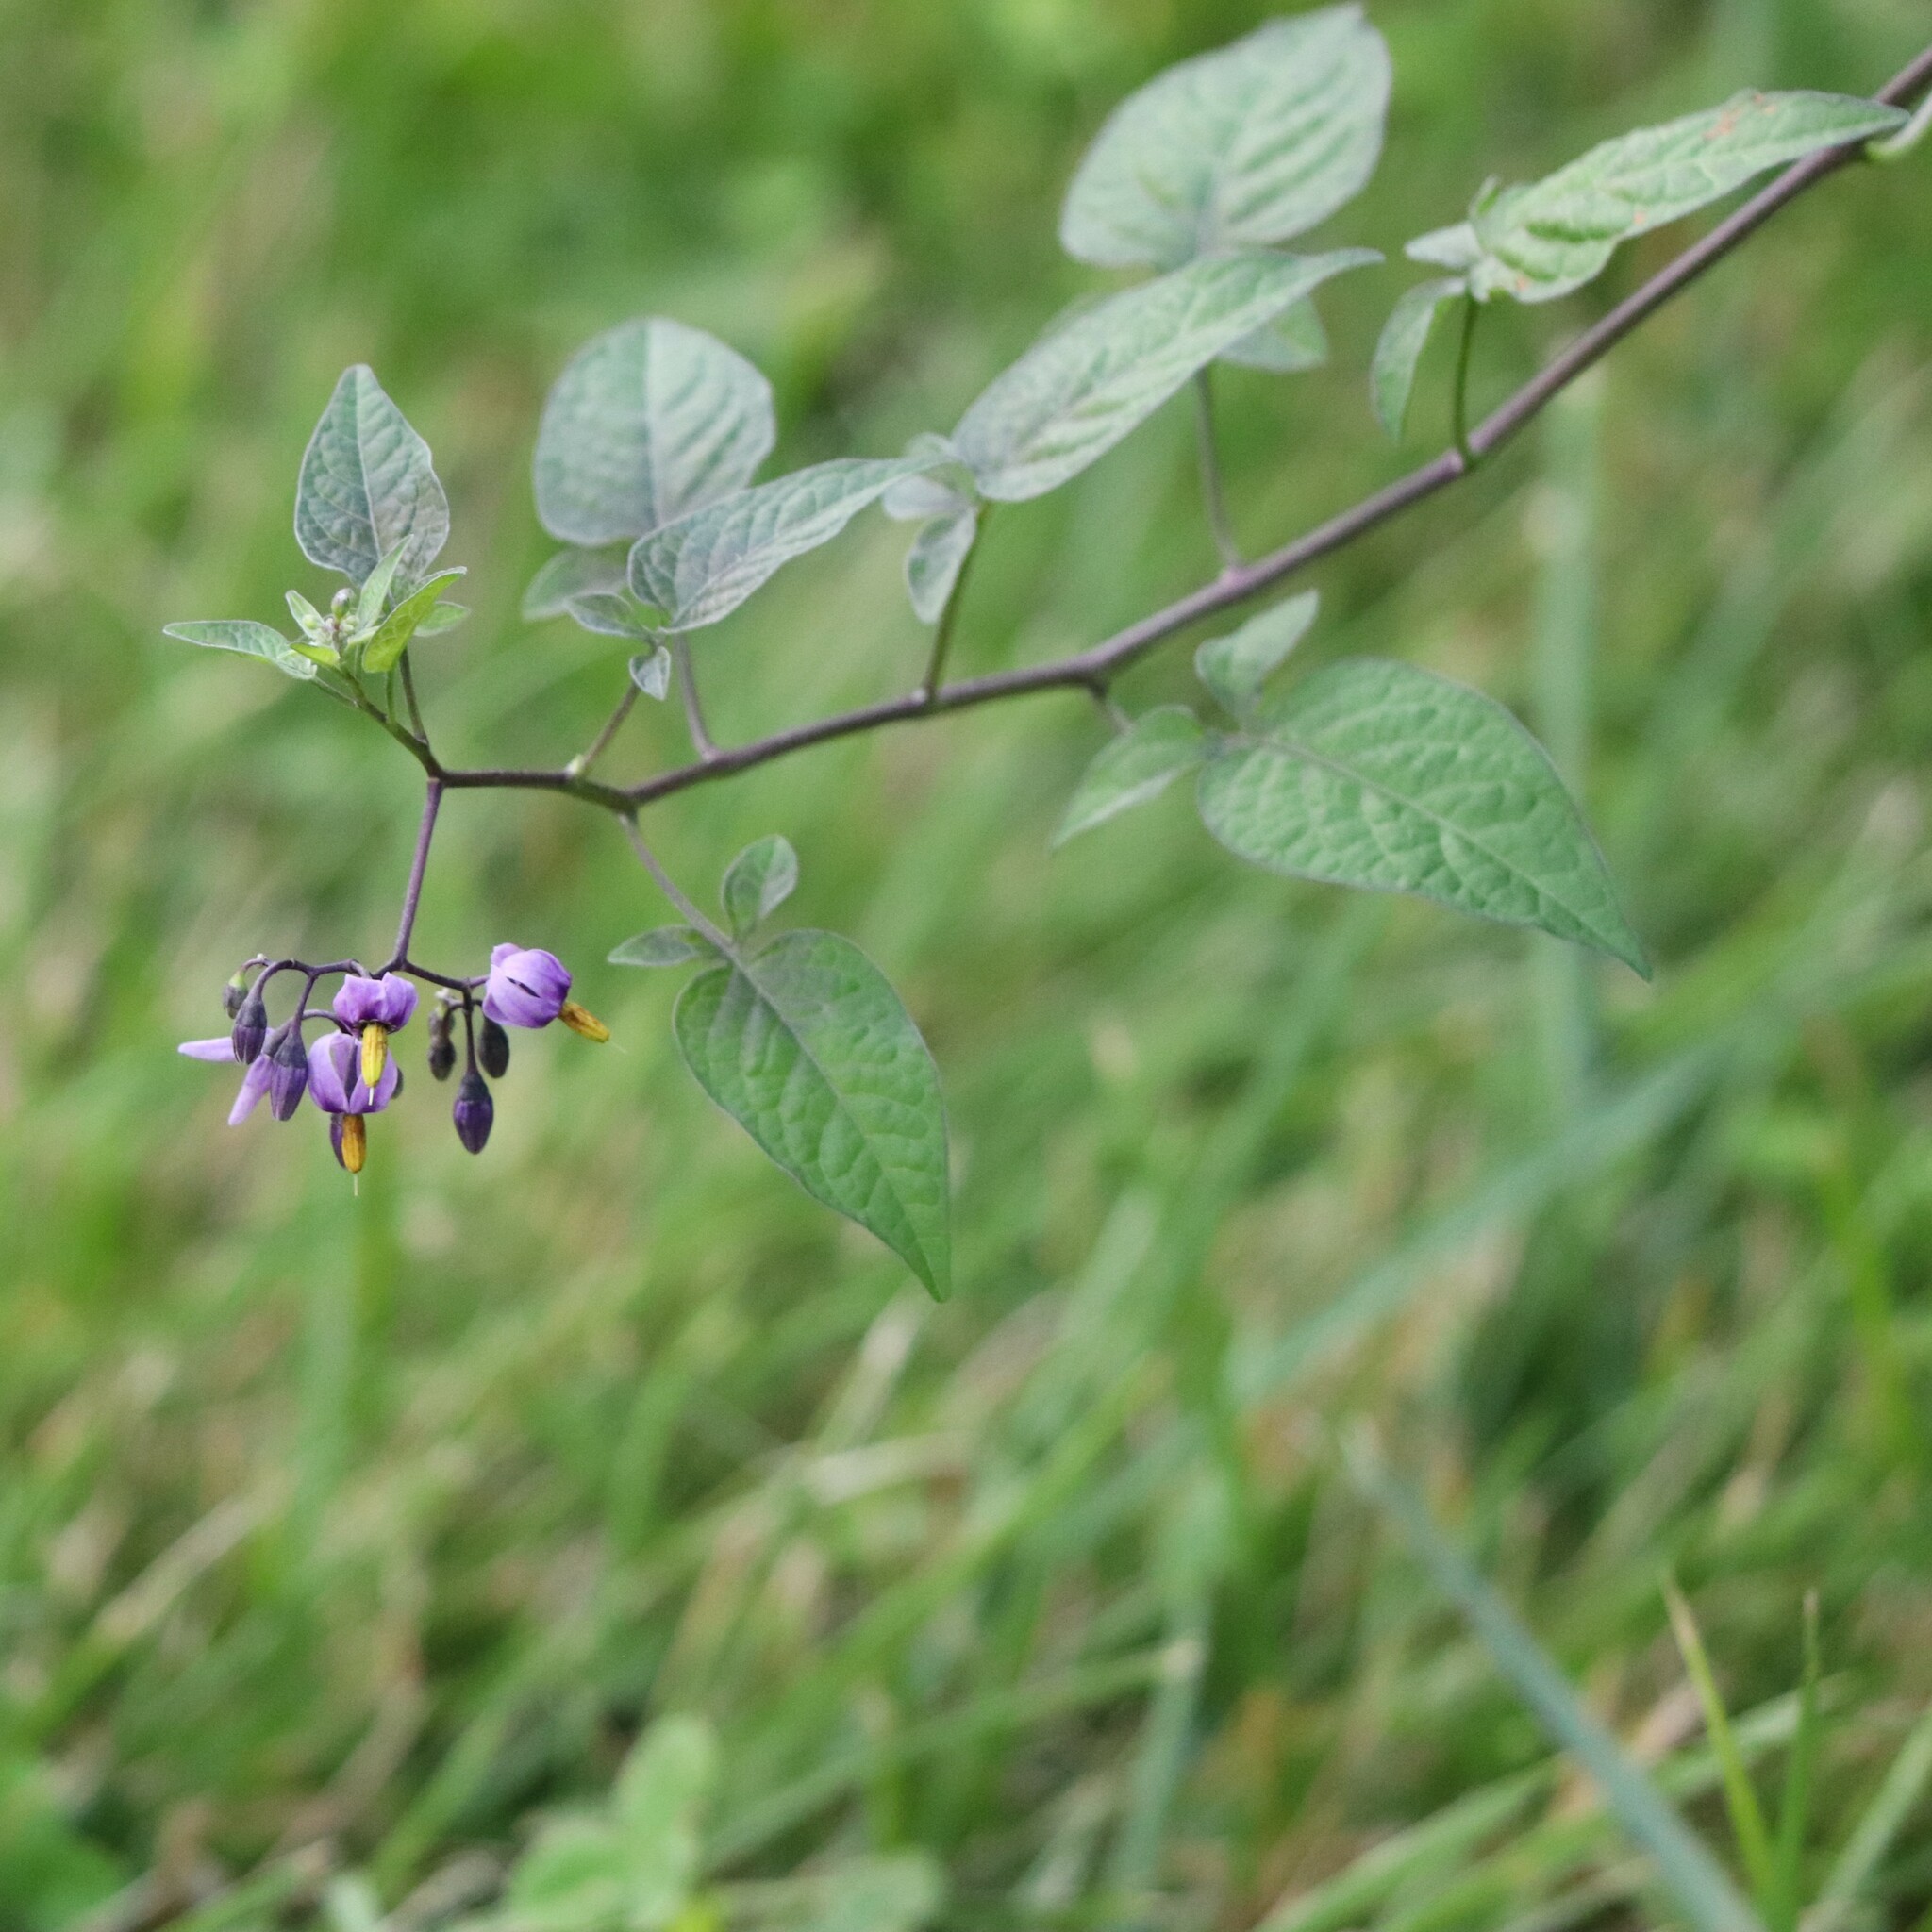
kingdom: Plantae
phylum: Tracheophyta
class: Magnoliopsida
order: Solanales
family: Solanaceae
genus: Solanum
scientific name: Solanum dulcamara
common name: Climbing nightshade
